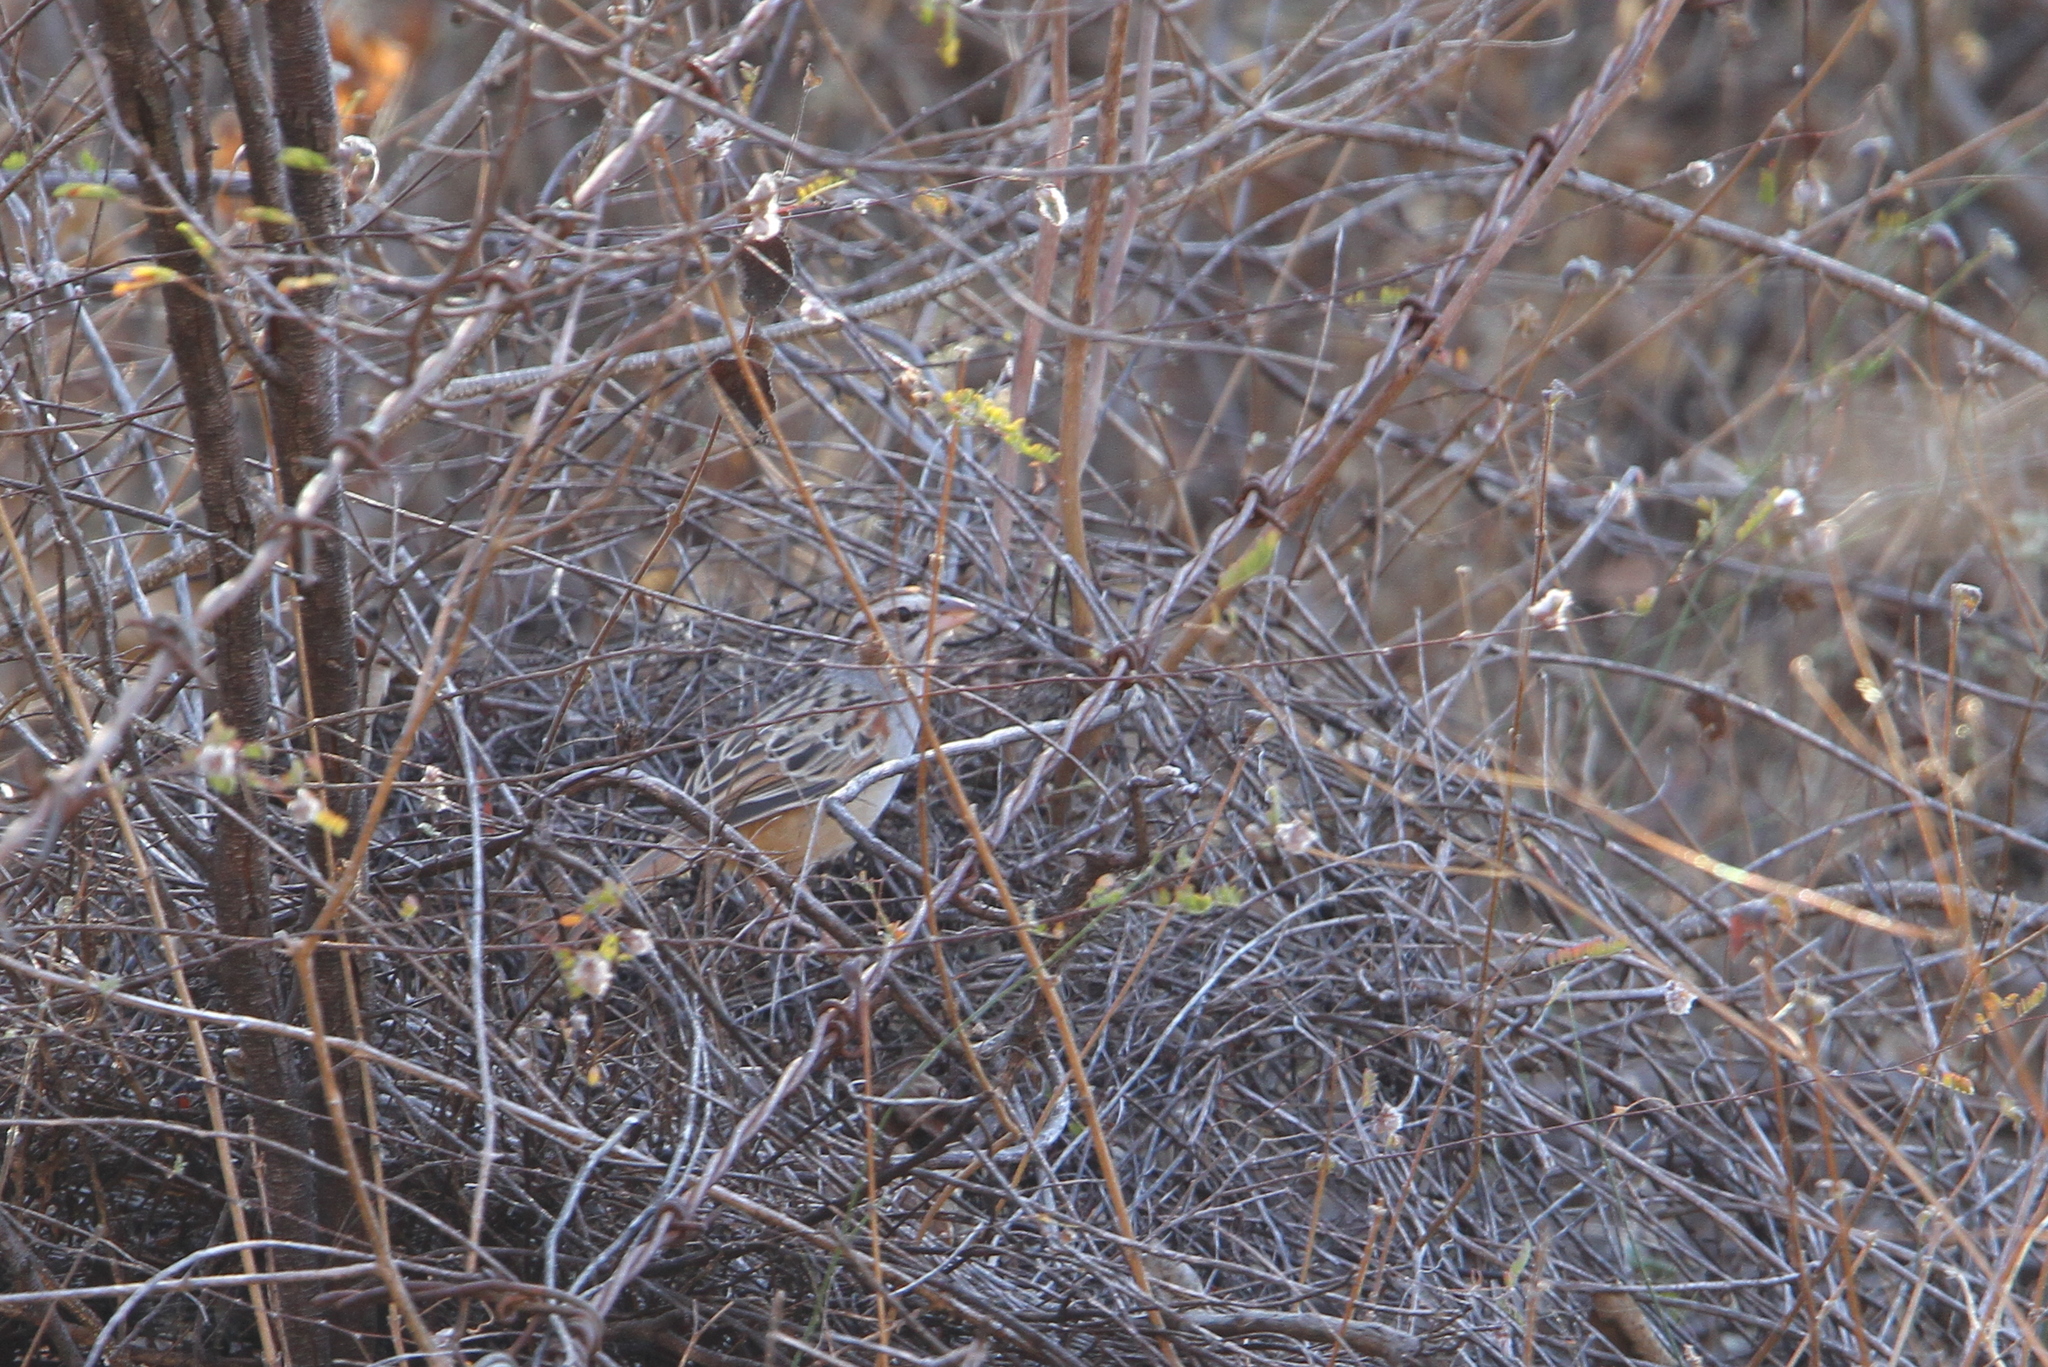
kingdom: Animalia
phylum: Chordata
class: Aves
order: Passeriformes
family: Passerellidae
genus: Peucaea
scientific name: Peucaea sumichrasti
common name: Cinnamon-tailed sparrow
